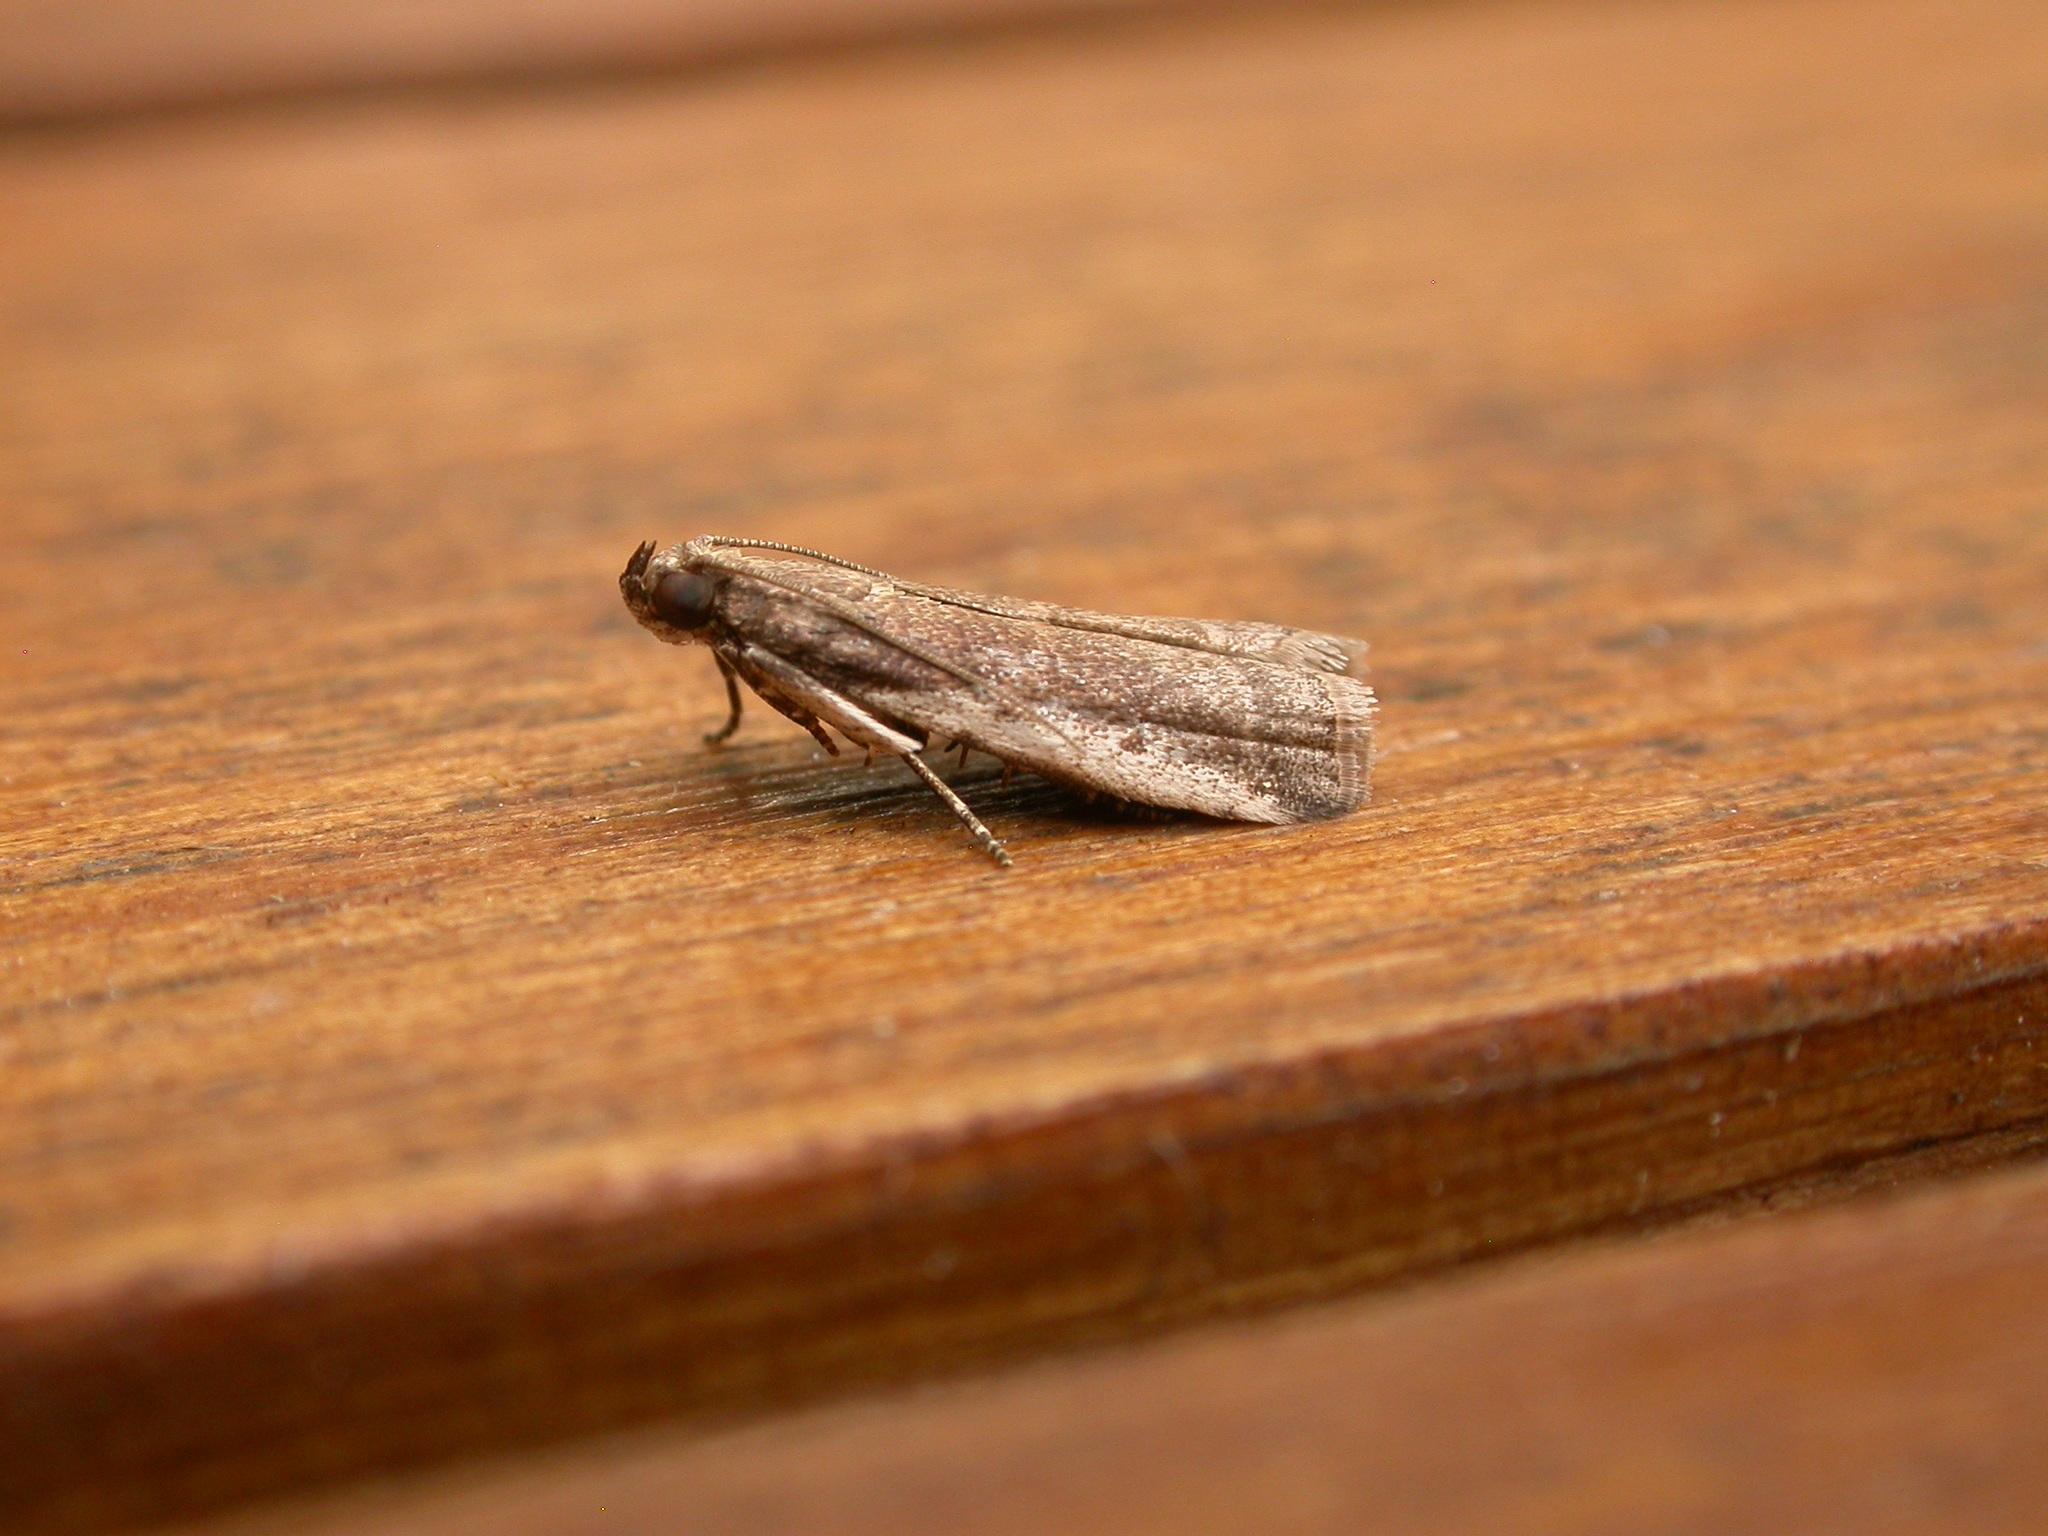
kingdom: Animalia
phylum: Arthropoda
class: Insecta
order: Lepidoptera
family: Pyralidae
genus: Assara
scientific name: Assara subarcuella
